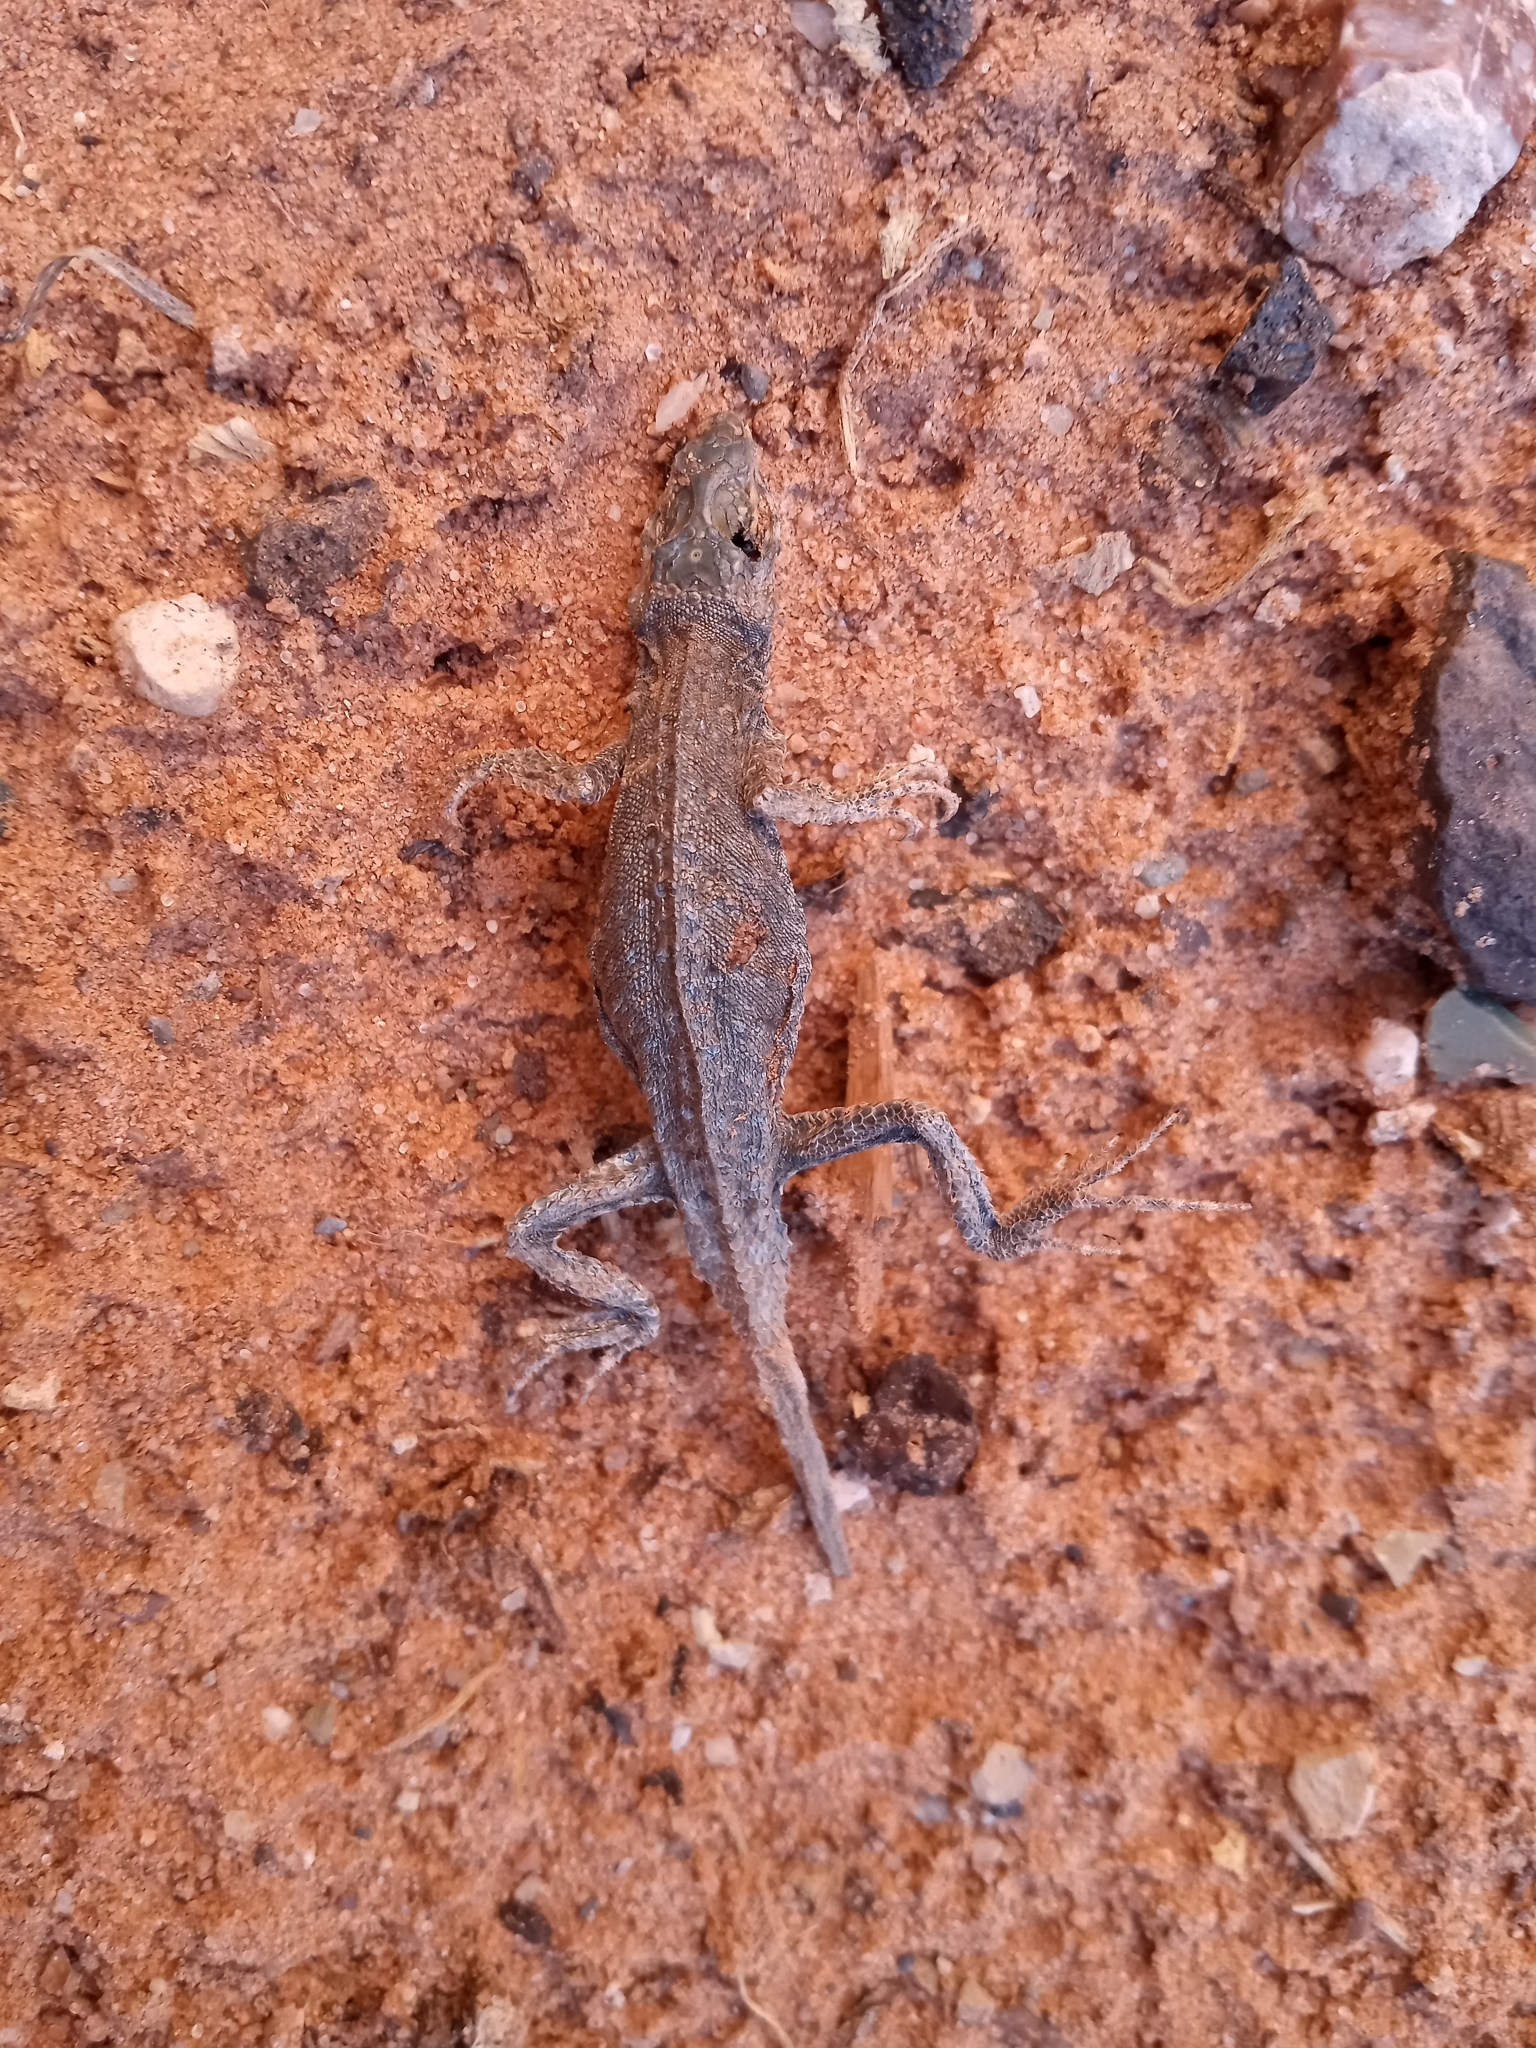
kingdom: Animalia
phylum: Chordata
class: Squamata
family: Phrynosomatidae
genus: Uta
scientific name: Uta stansburiana
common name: Side-blotched lizard
